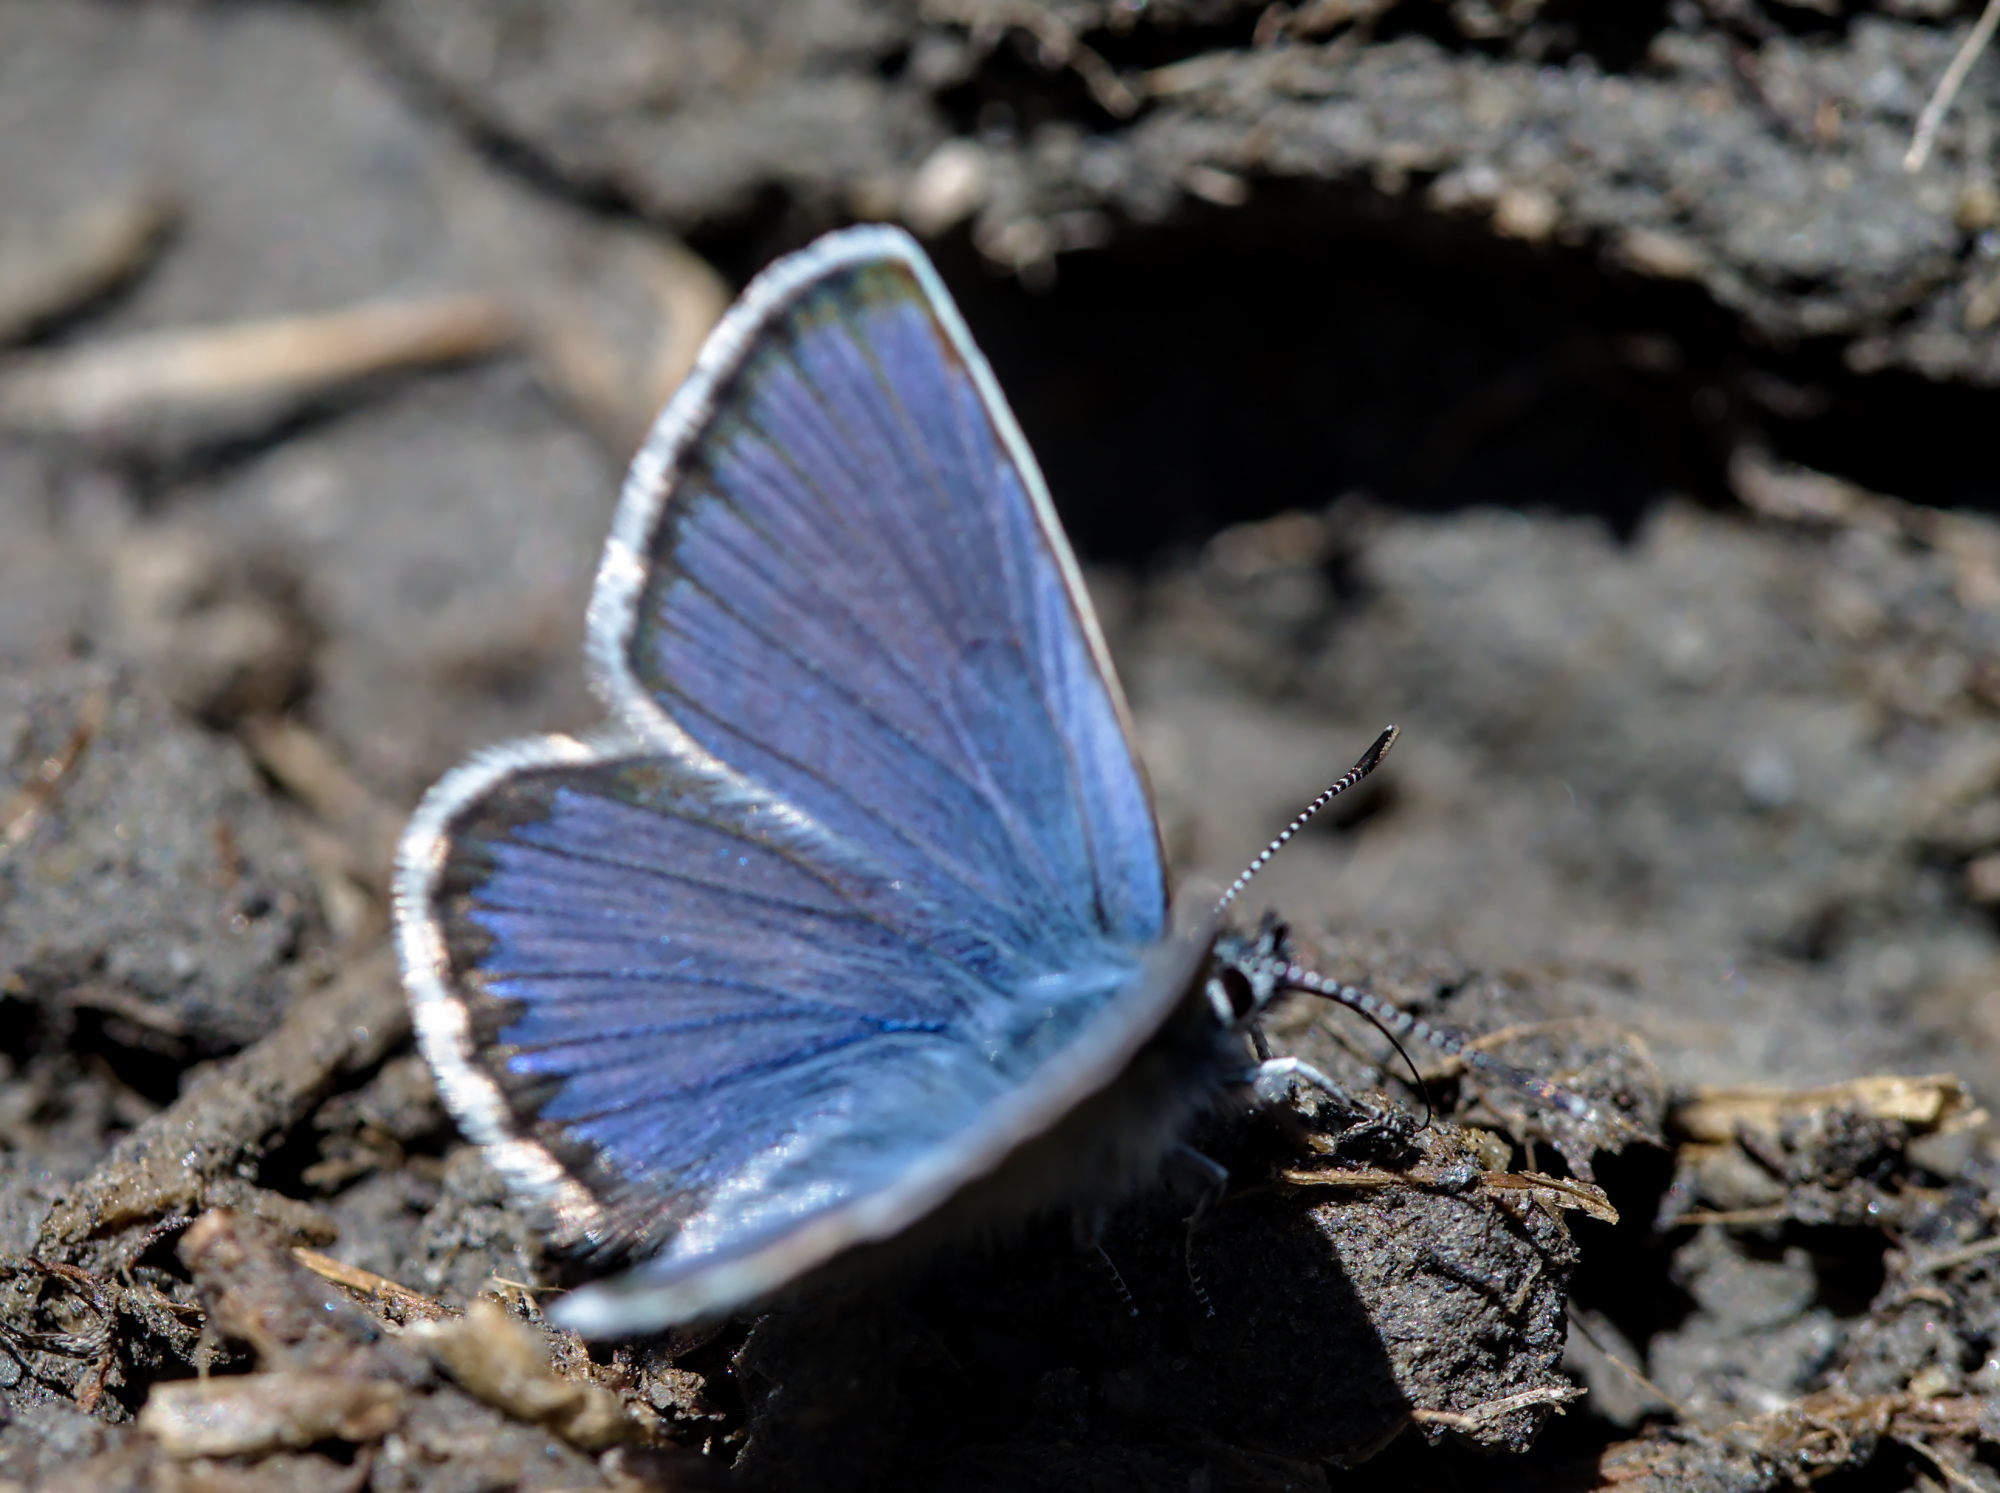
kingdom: Animalia
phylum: Arthropoda
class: Insecta
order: Lepidoptera
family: Lycaenidae
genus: Lycaeides
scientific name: Lycaeides idas
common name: Northern blue
